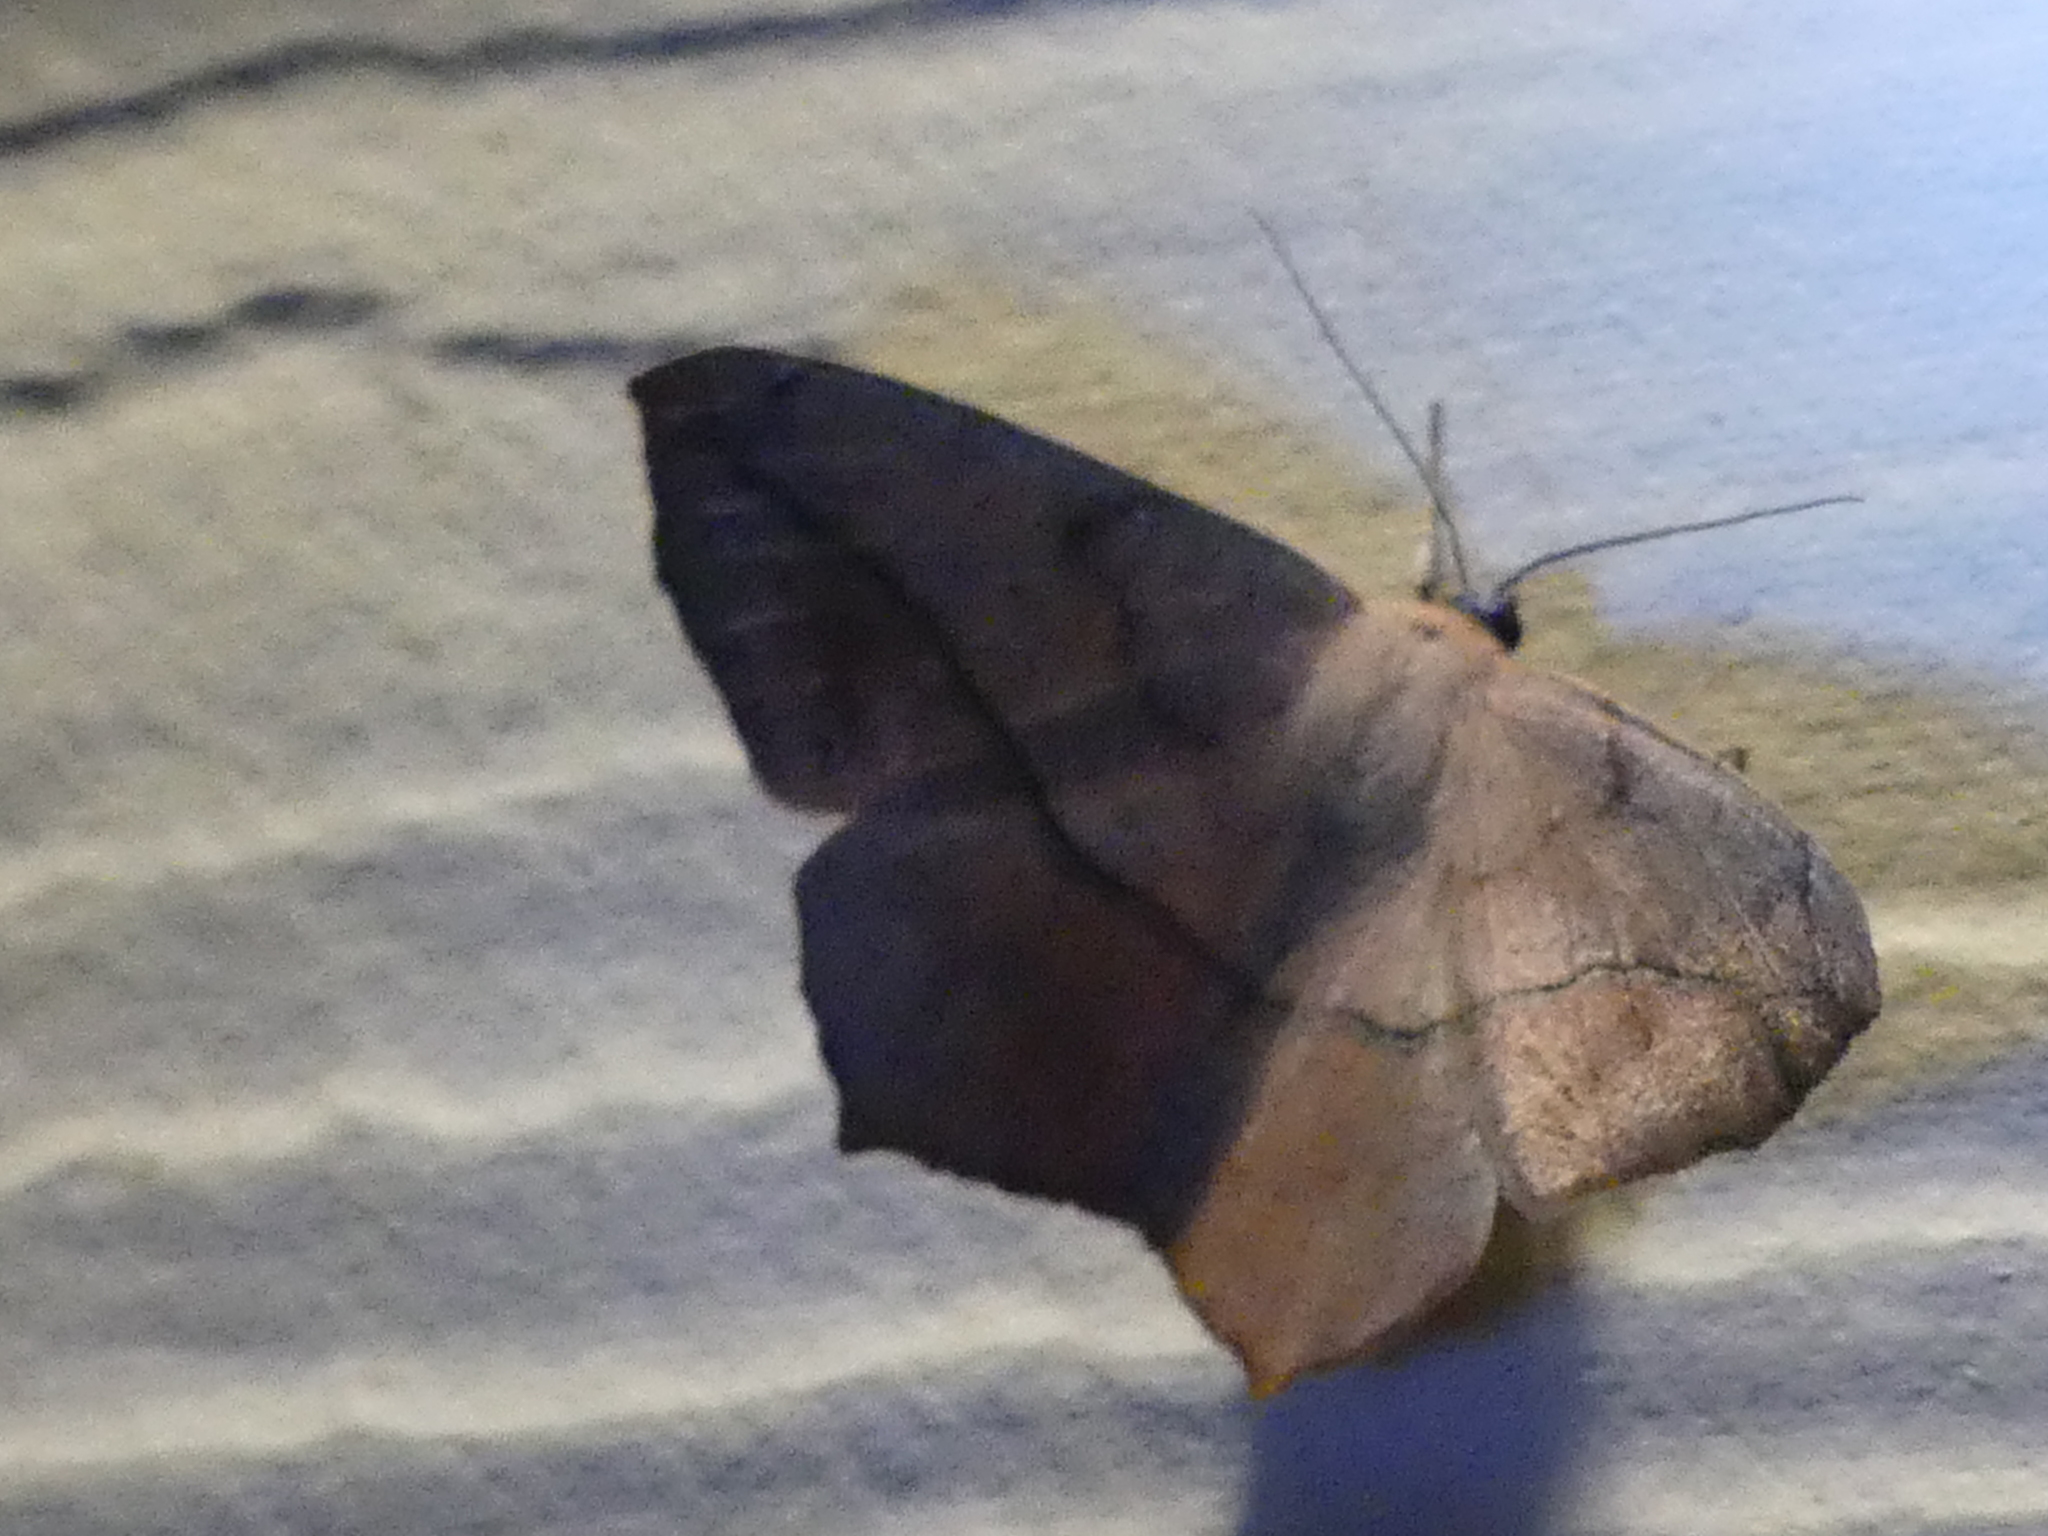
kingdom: Animalia
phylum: Arthropoda
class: Insecta
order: Lepidoptera
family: Geometridae
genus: Prochoerodes
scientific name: Prochoerodes lineola
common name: Large maple spanworm
